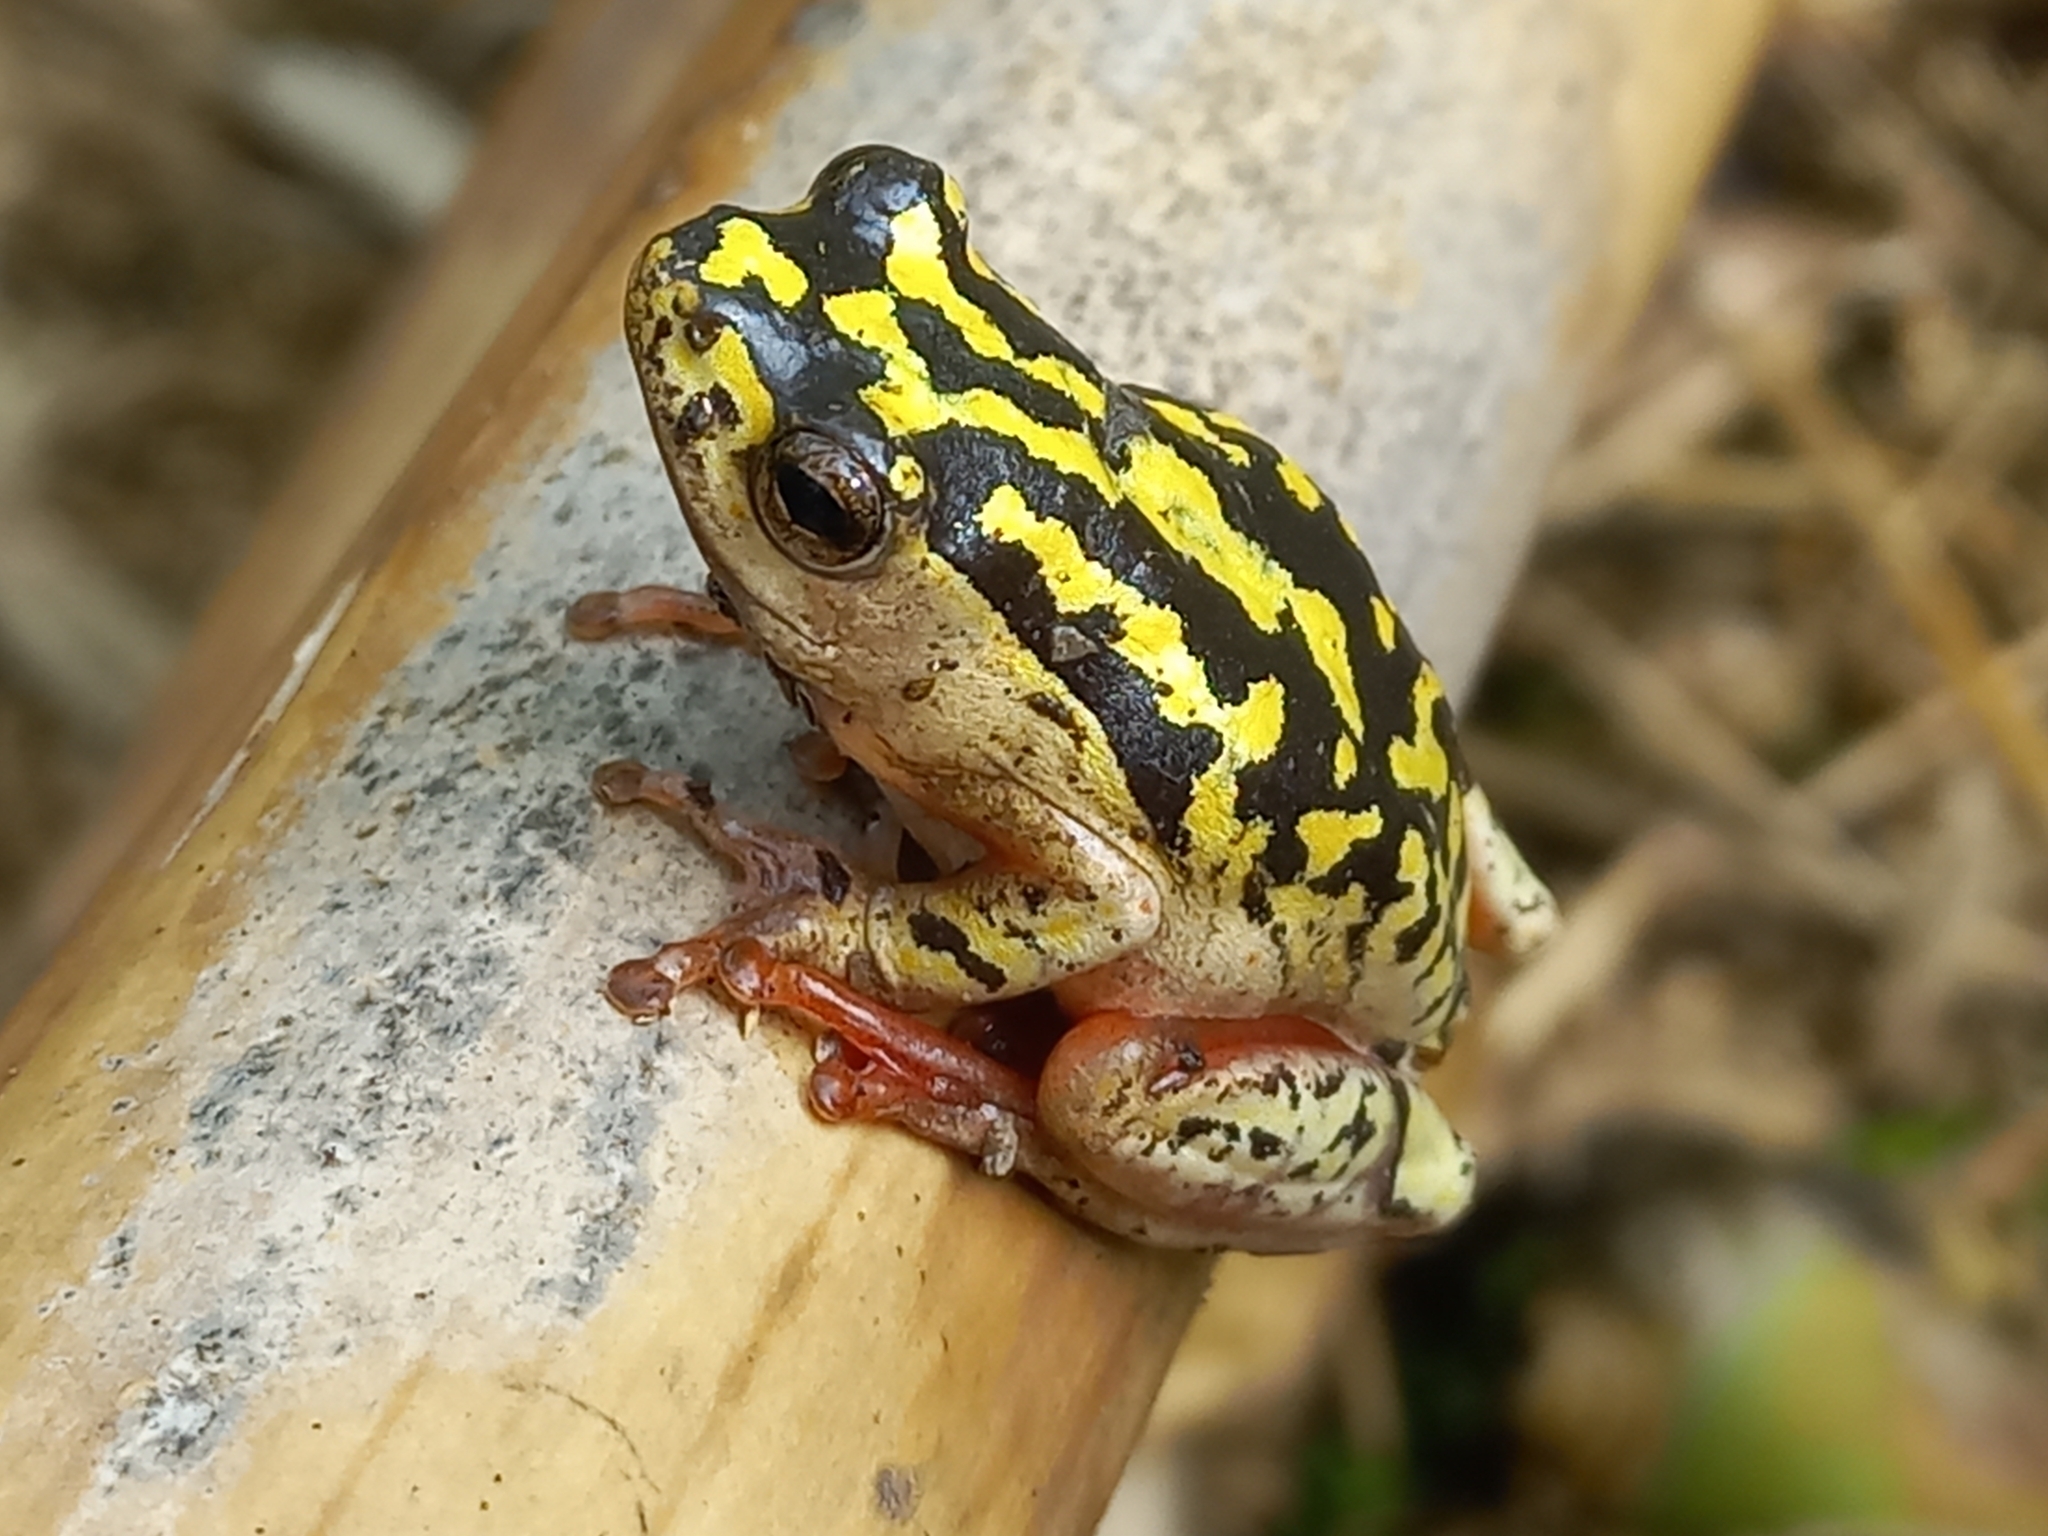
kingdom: Animalia
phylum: Chordata
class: Amphibia
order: Anura
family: Hyperoliidae
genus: Hyperolius
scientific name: Hyperolius marmoratus
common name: Painted reed frog
